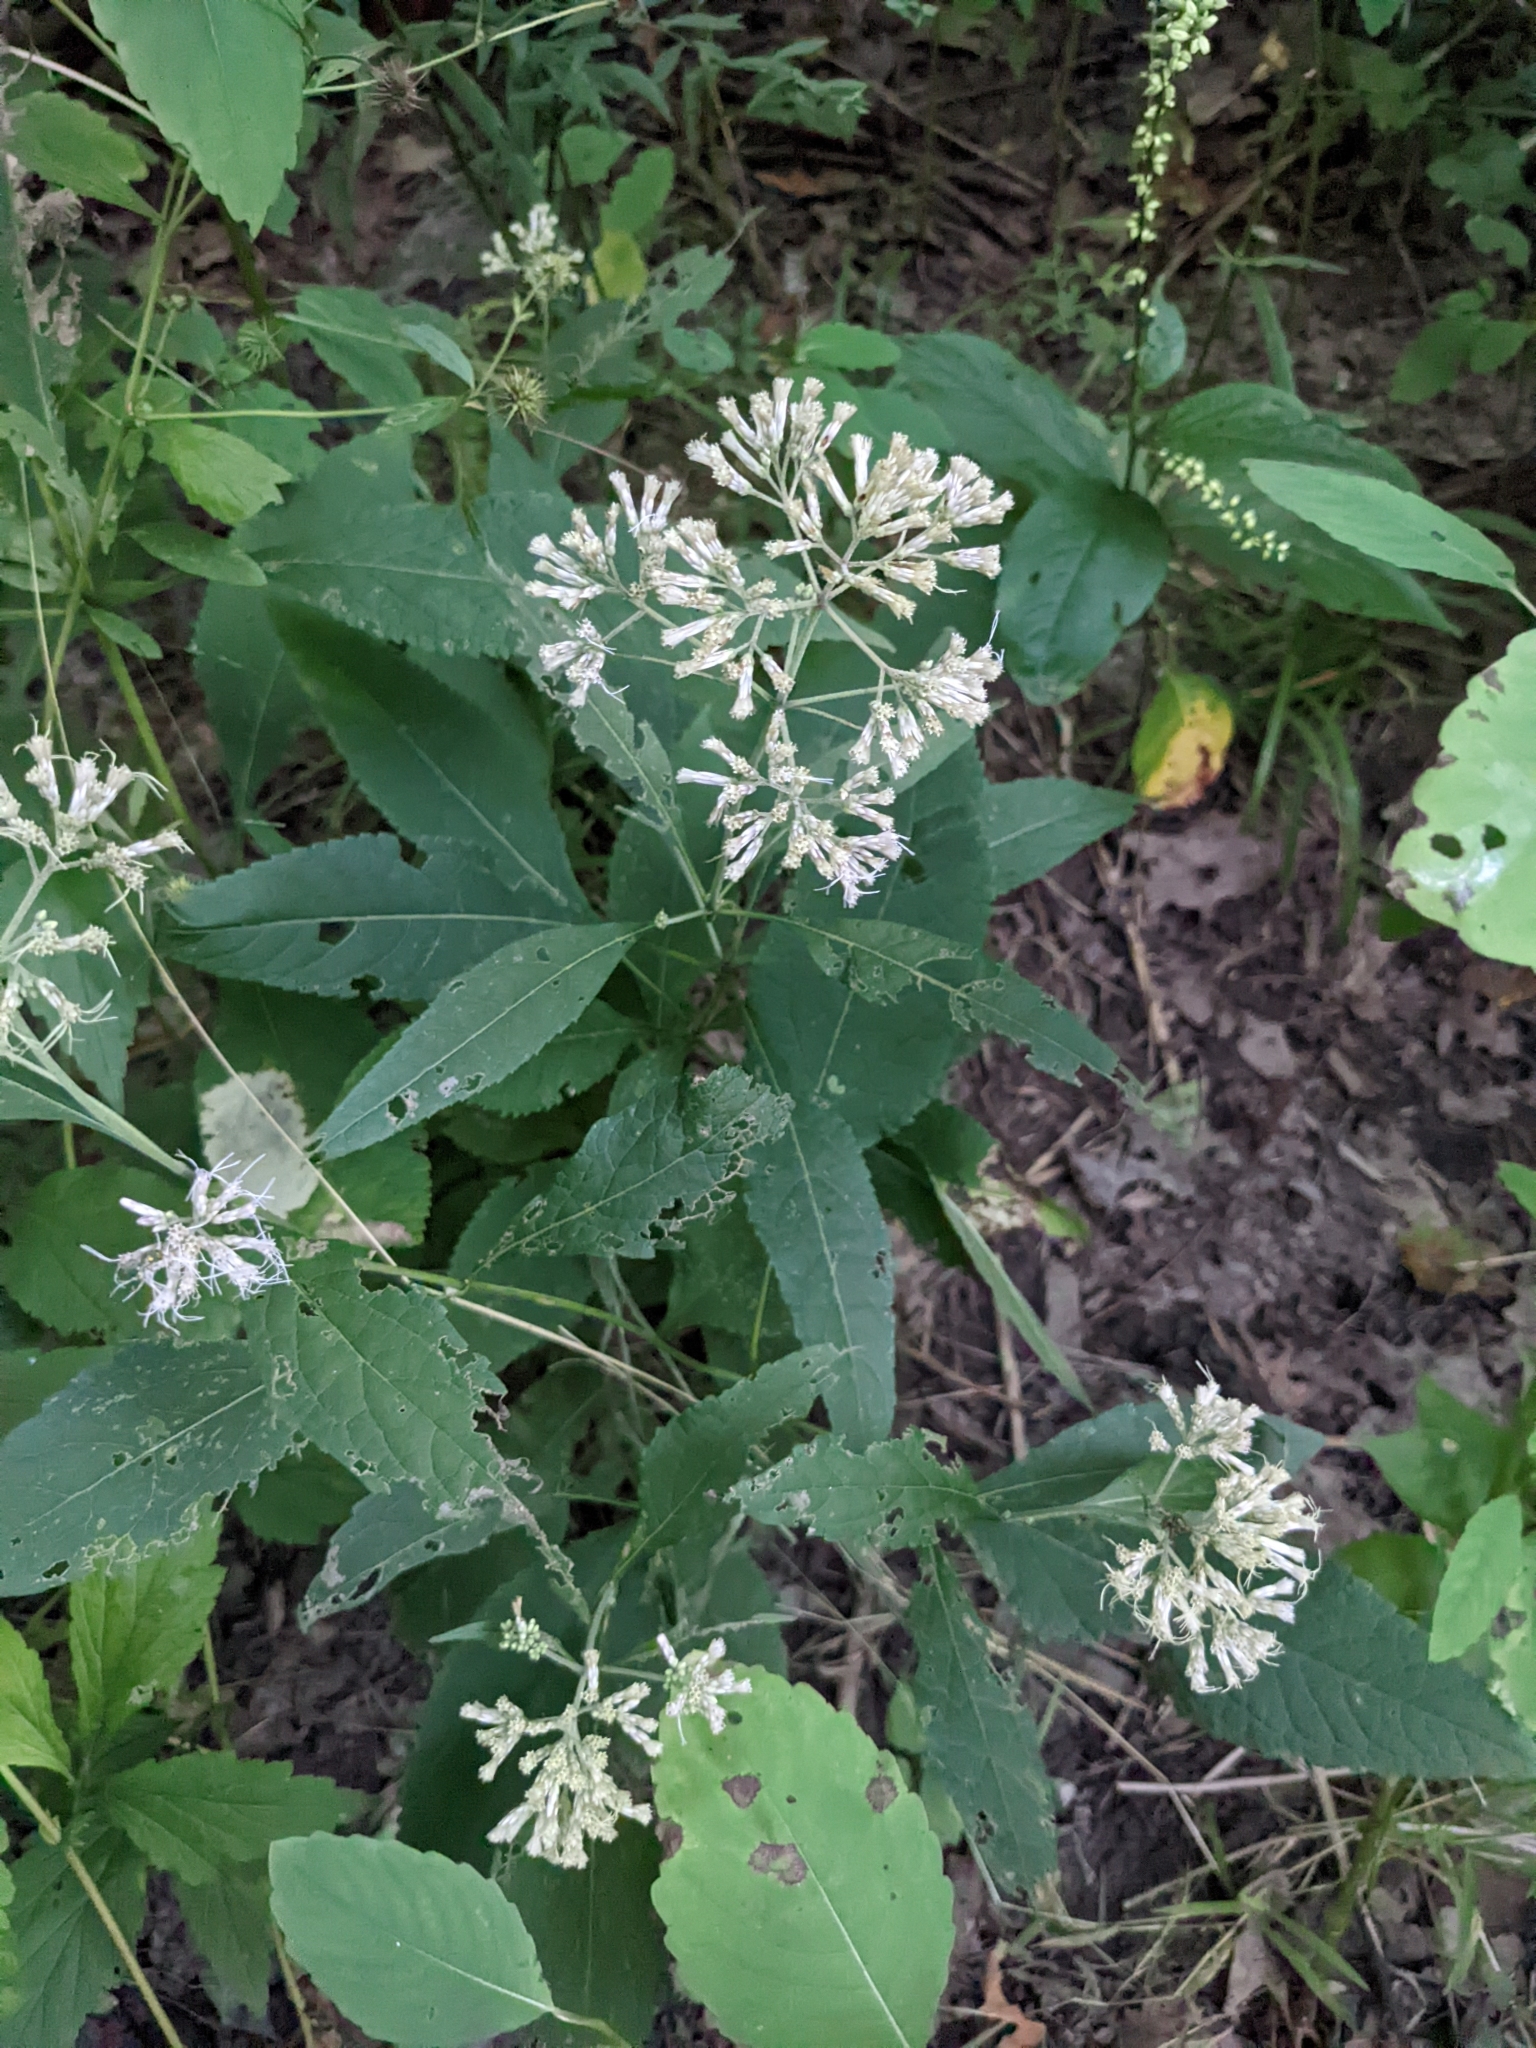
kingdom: Plantae
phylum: Tracheophyta
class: Magnoliopsida
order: Asterales
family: Asteraceae
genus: Eutrochium
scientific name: Eutrochium purpureum
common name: Gravelroot
